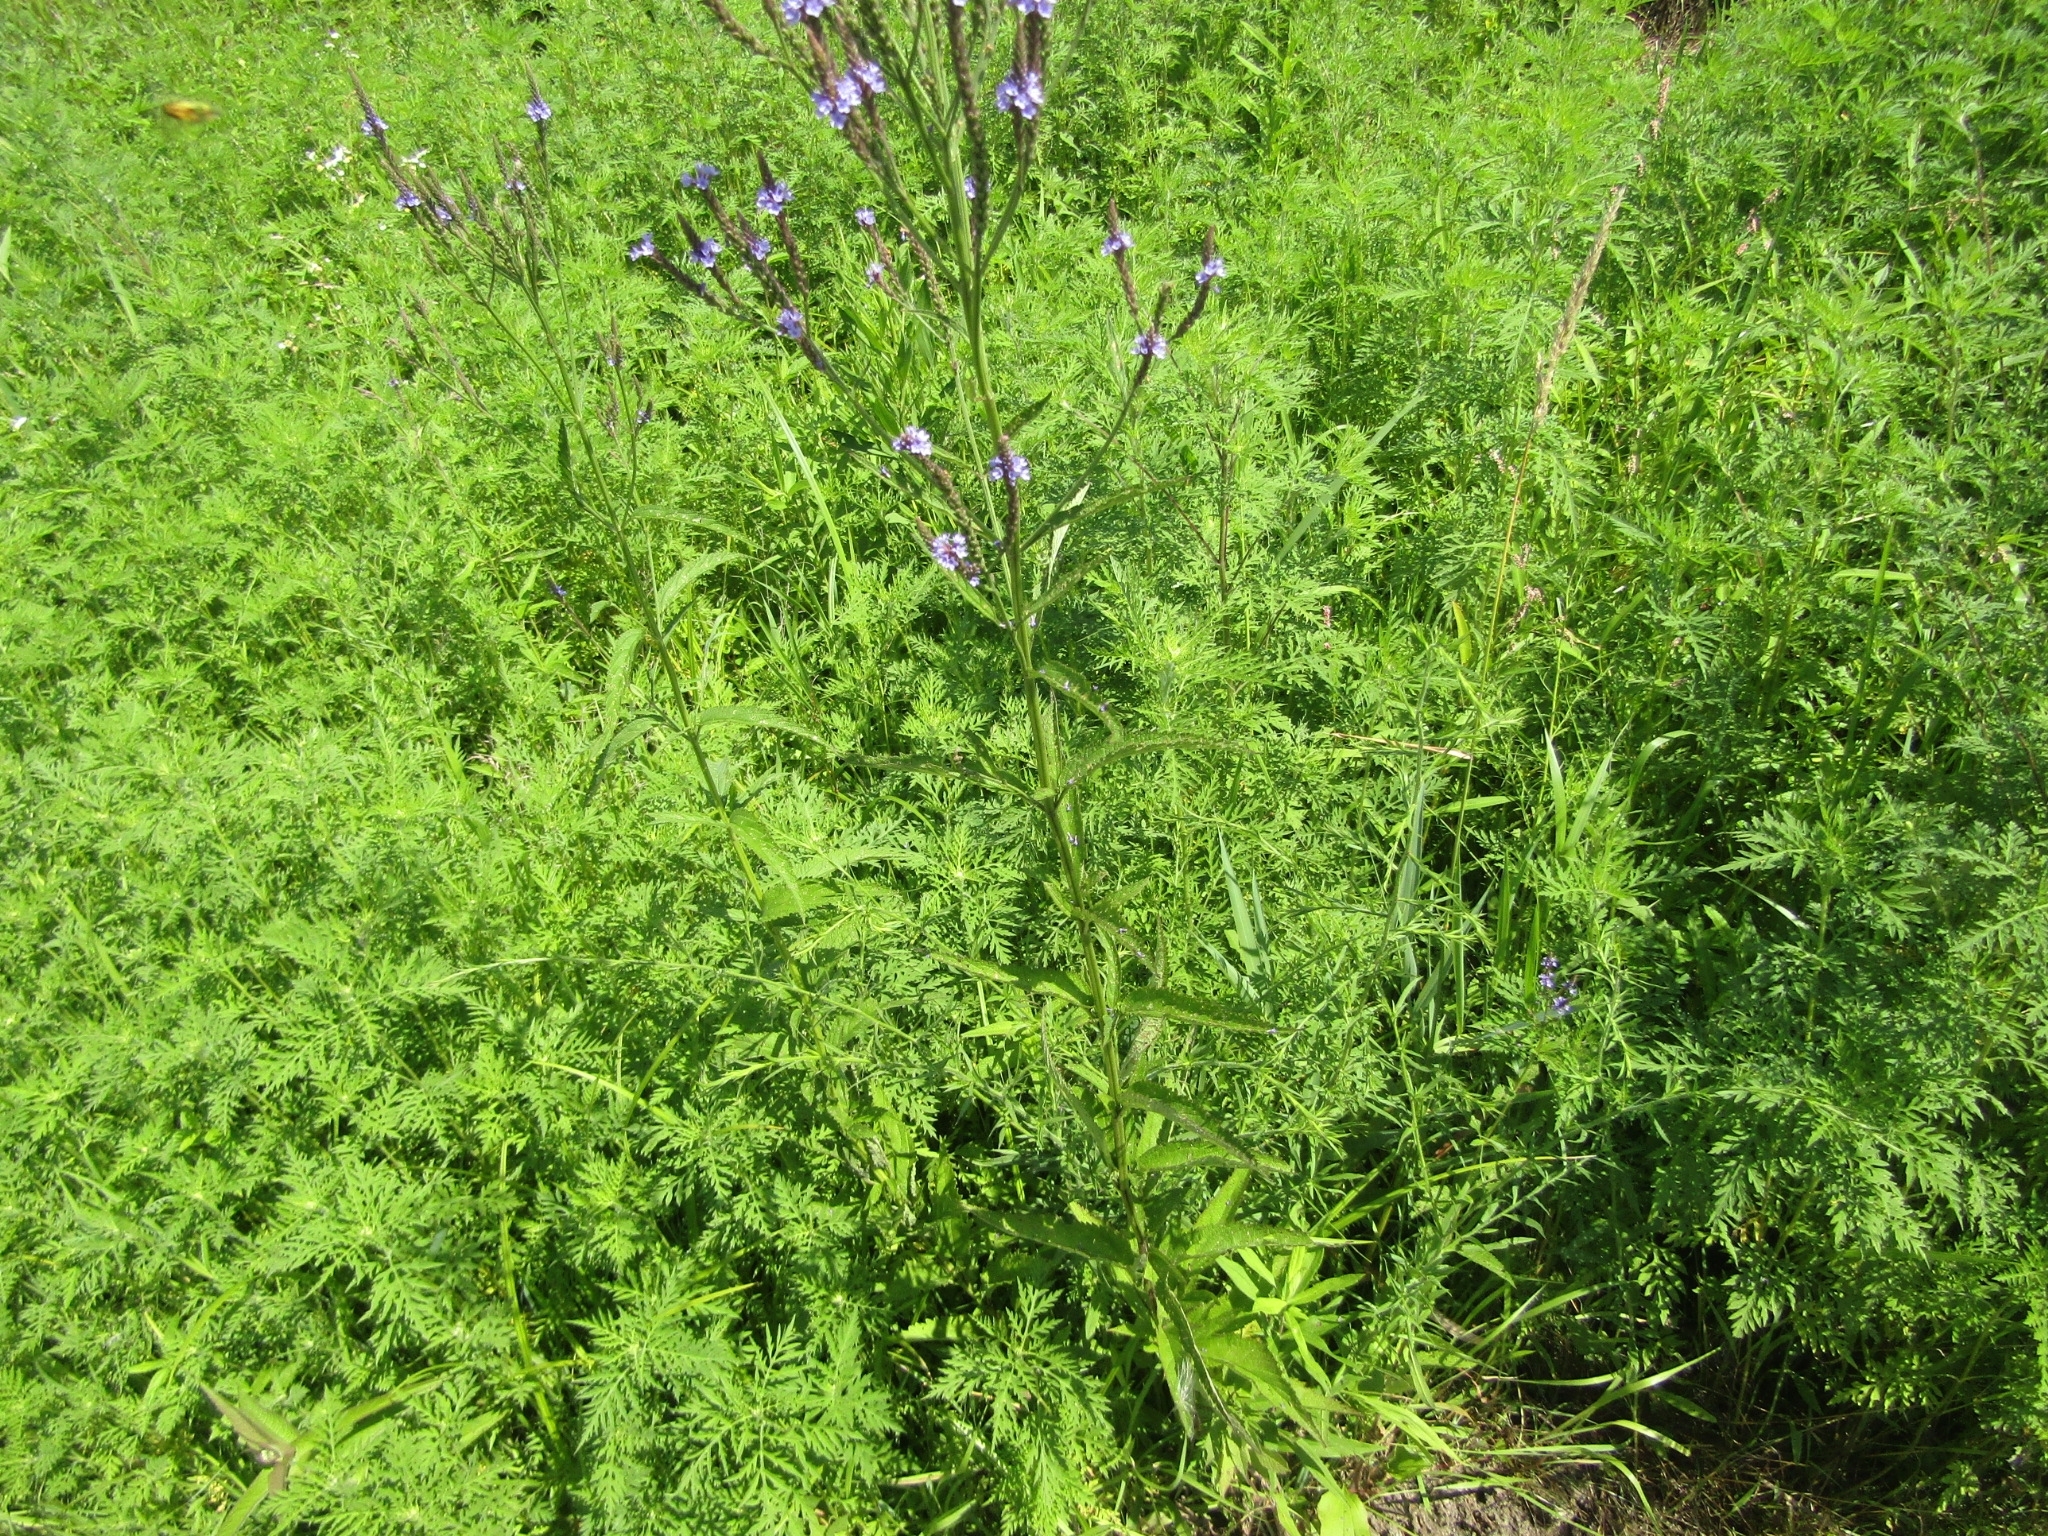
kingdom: Plantae
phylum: Tracheophyta
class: Magnoliopsida
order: Lamiales
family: Verbenaceae
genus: Verbena
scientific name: Verbena hastata
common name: American blue vervain
